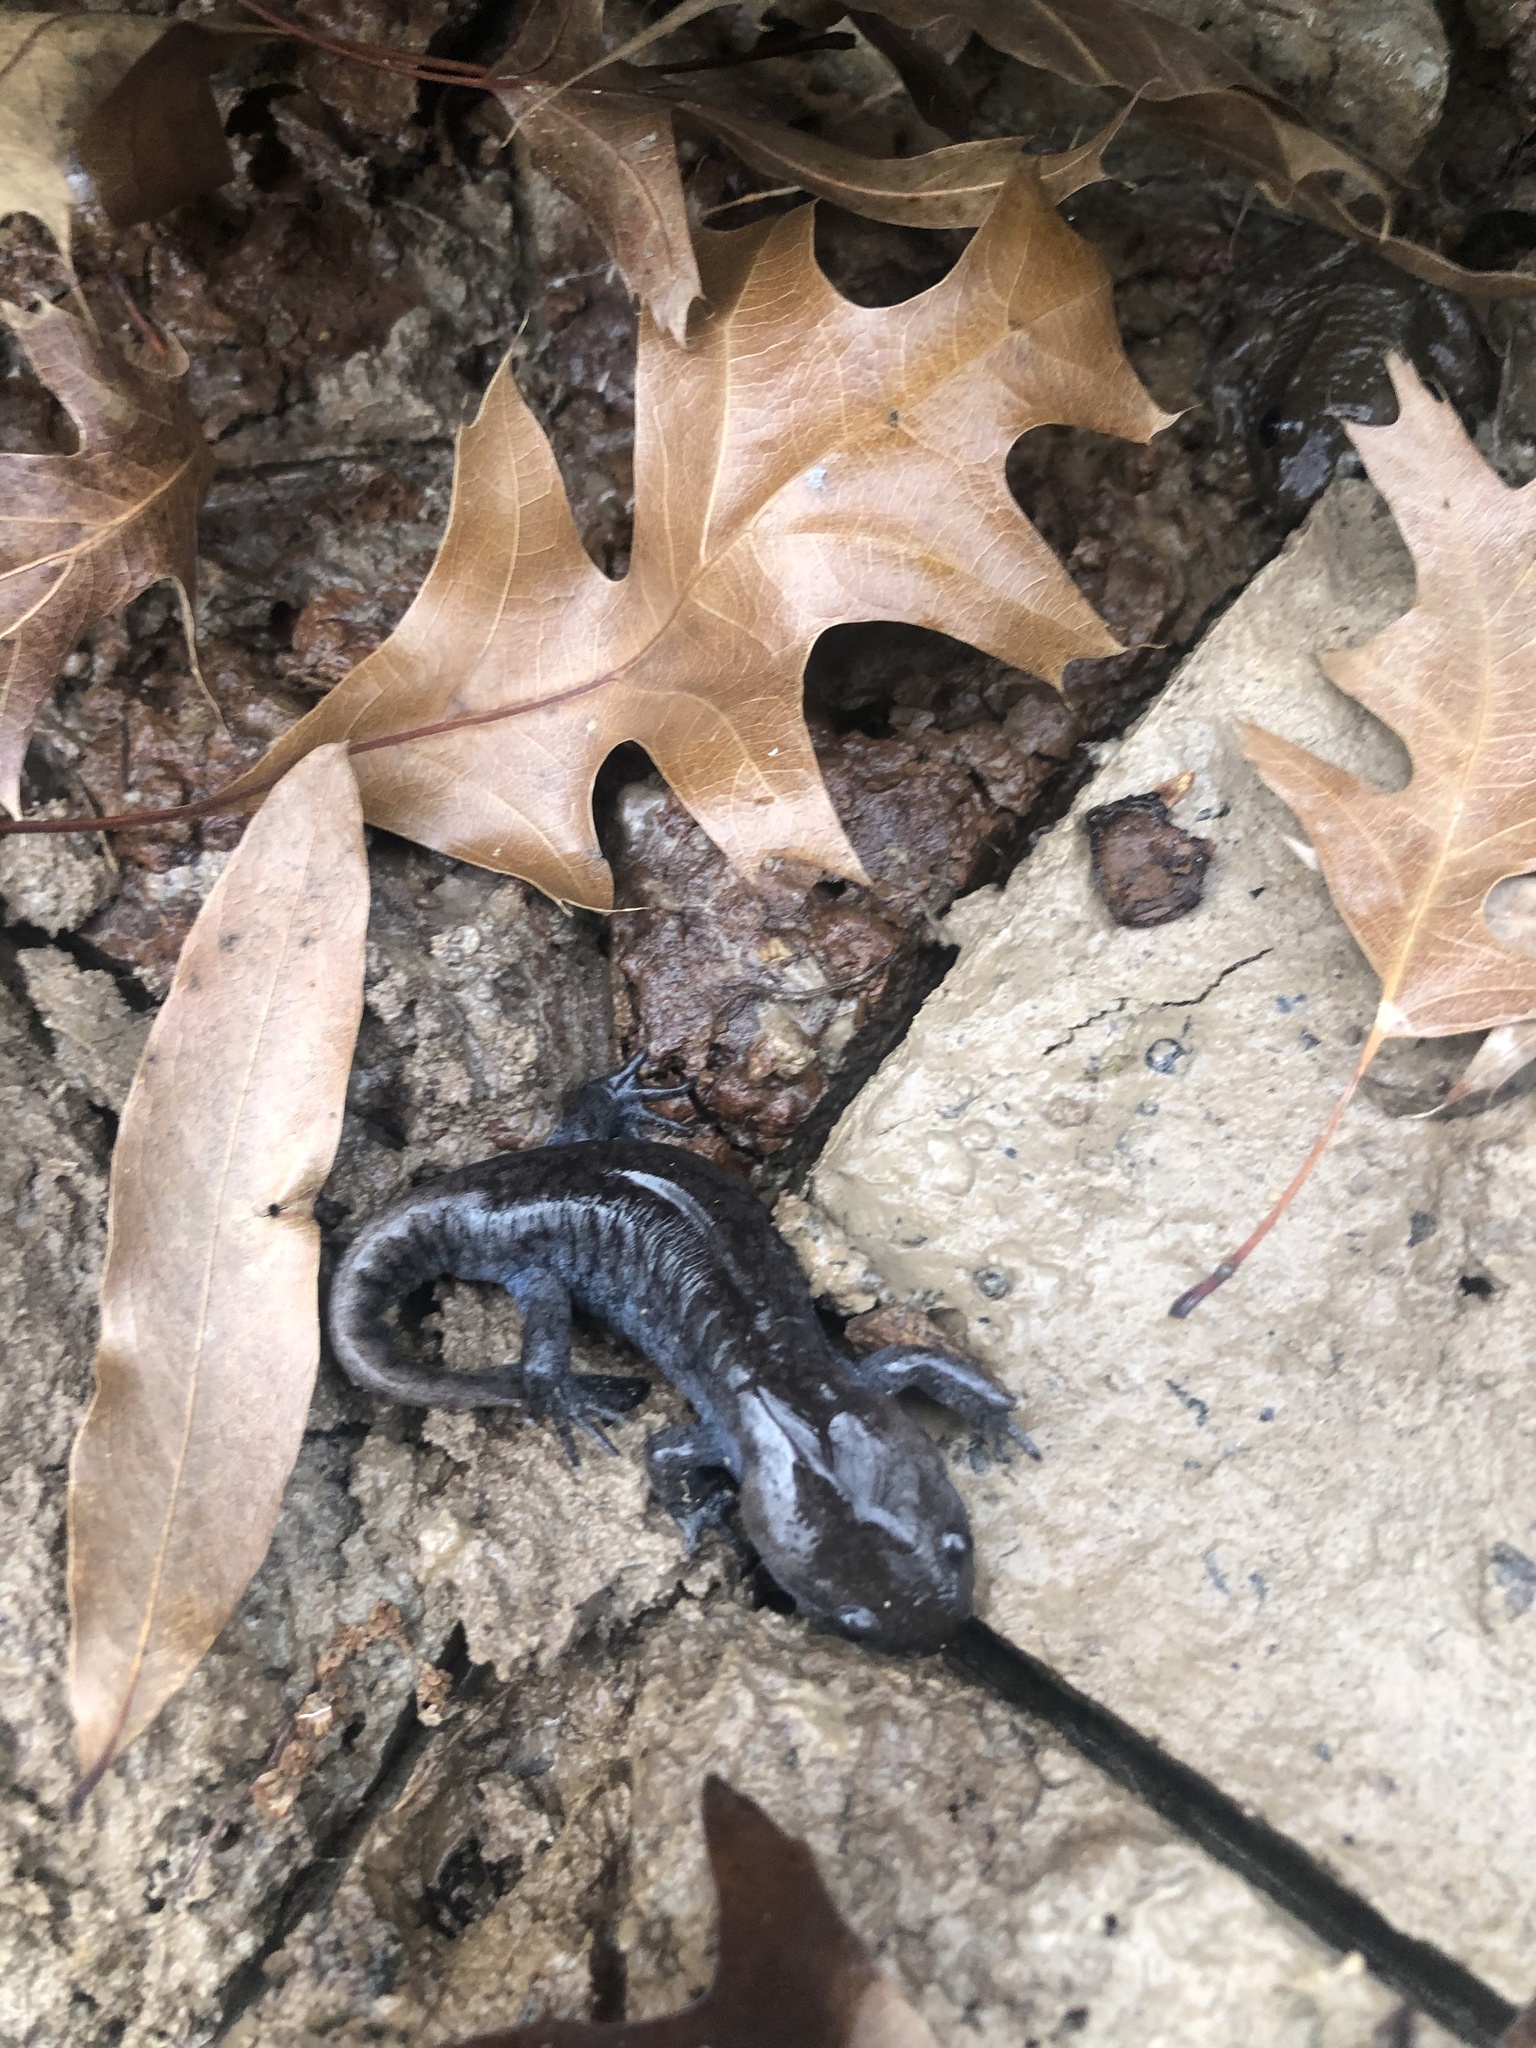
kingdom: Animalia
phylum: Chordata
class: Amphibia
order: Caudata
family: Ambystomatidae
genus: Ambystoma
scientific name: Ambystoma talpoideum
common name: Mole salamander
